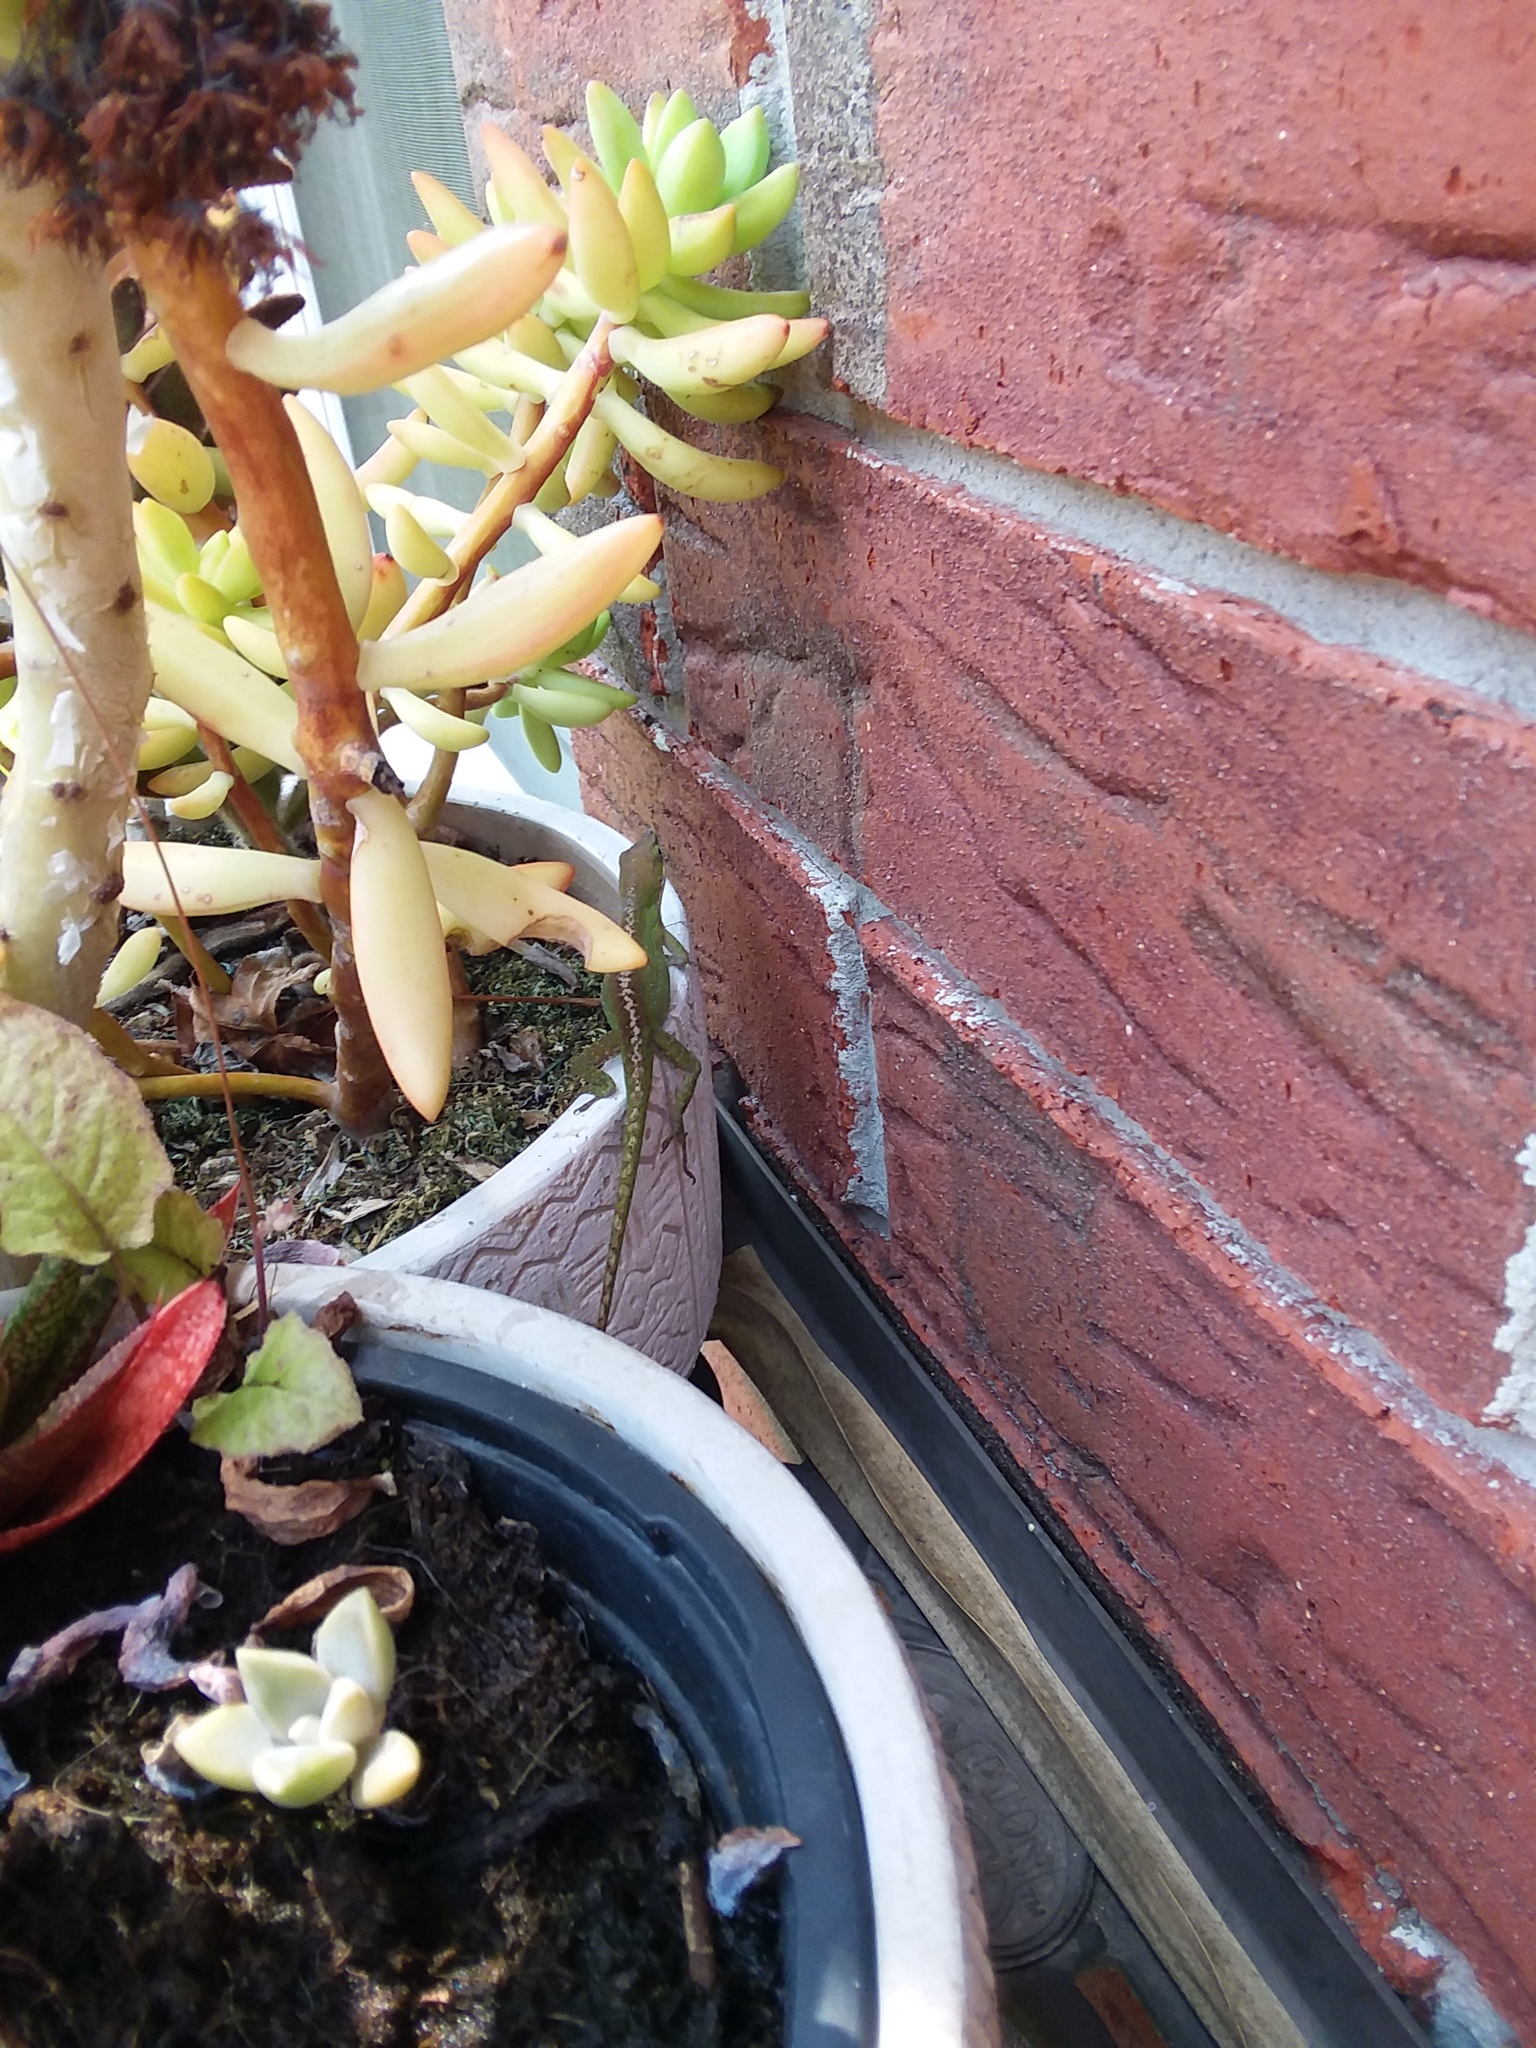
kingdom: Animalia
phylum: Chordata
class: Squamata
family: Dactyloidae
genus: Anolis
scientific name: Anolis carolinensis
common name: Green anole
